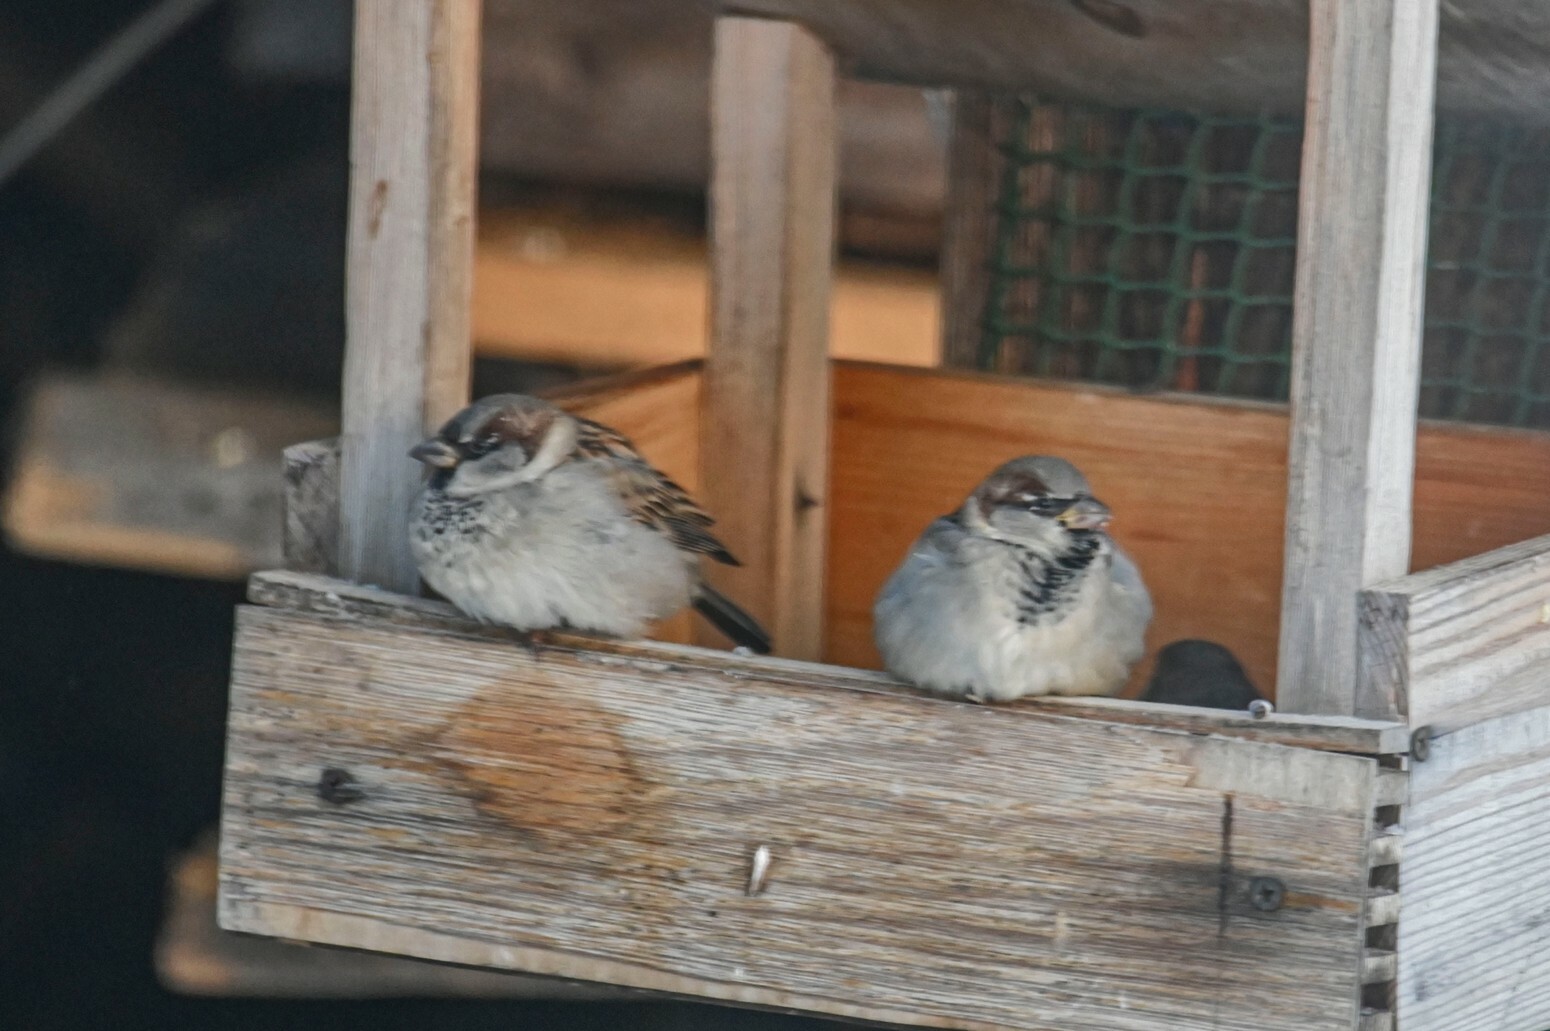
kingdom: Animalia
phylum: Chordata
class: Aves
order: Passeriformes
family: Passeridae
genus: Passer
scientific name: Passer domesticus
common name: House sparrow
